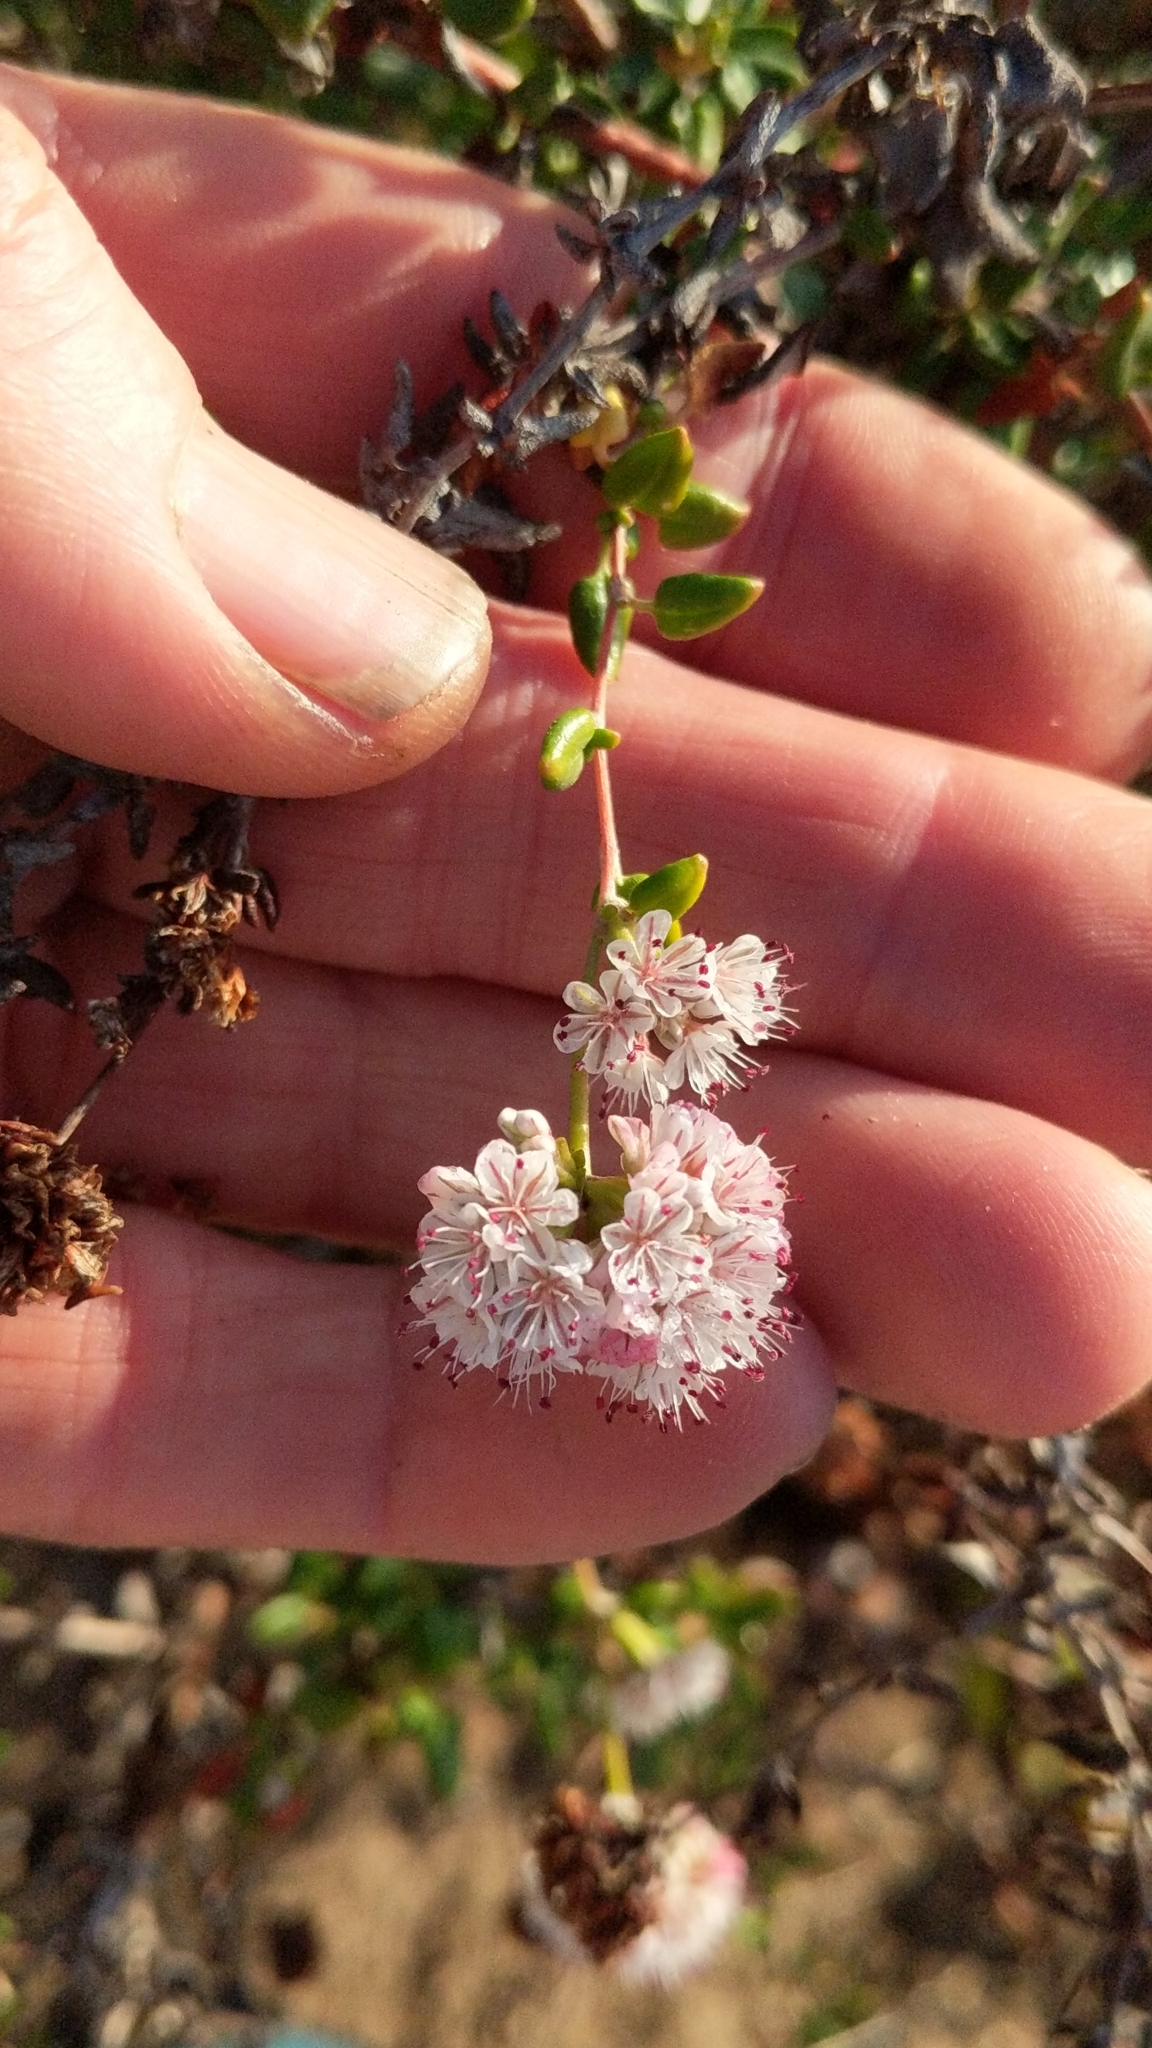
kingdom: Plantae
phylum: Tracheophyta
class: Magnoliopsida
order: Caryophyllales
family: Polygonaceae
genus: Eriogonum
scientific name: Eriogonum parvifolium
